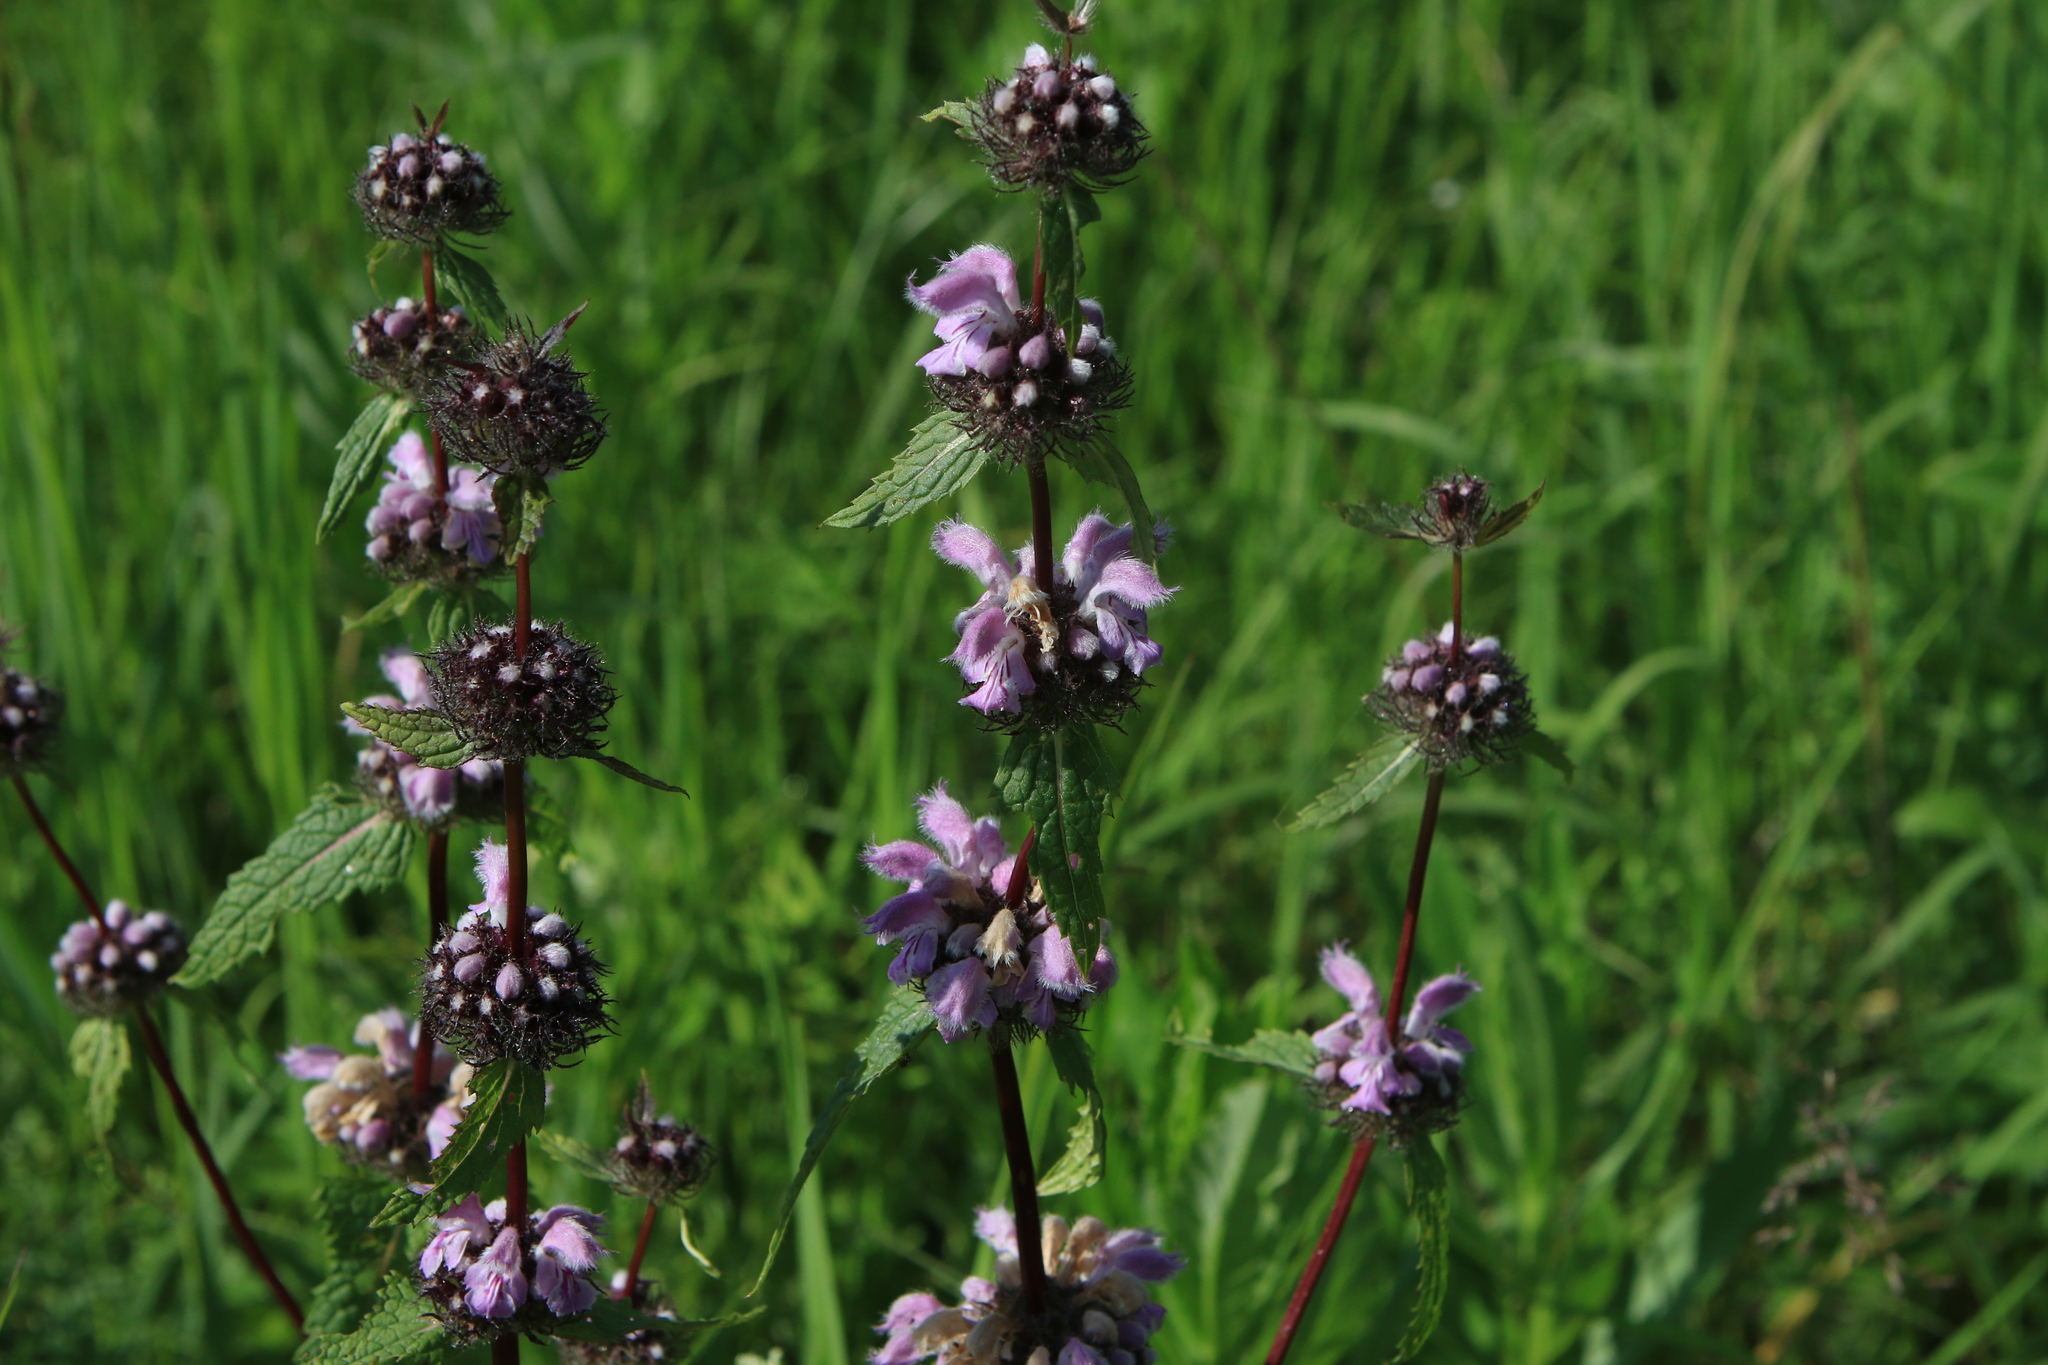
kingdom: Plantae
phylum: Tracheophyta
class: Magnoliopsida
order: Lamiales
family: Lamiaceae
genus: Phlomoides
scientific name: Phlomoides tuberosa
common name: Tuberous jerusalem sage
